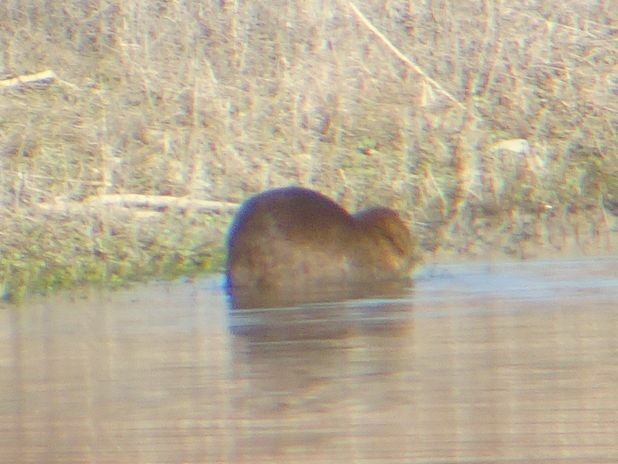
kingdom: Animalia
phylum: Chordata
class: Mammalia
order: Rodentia
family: Myocastoridae
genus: Myocastor
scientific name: Myocastor coypus
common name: Coypu
